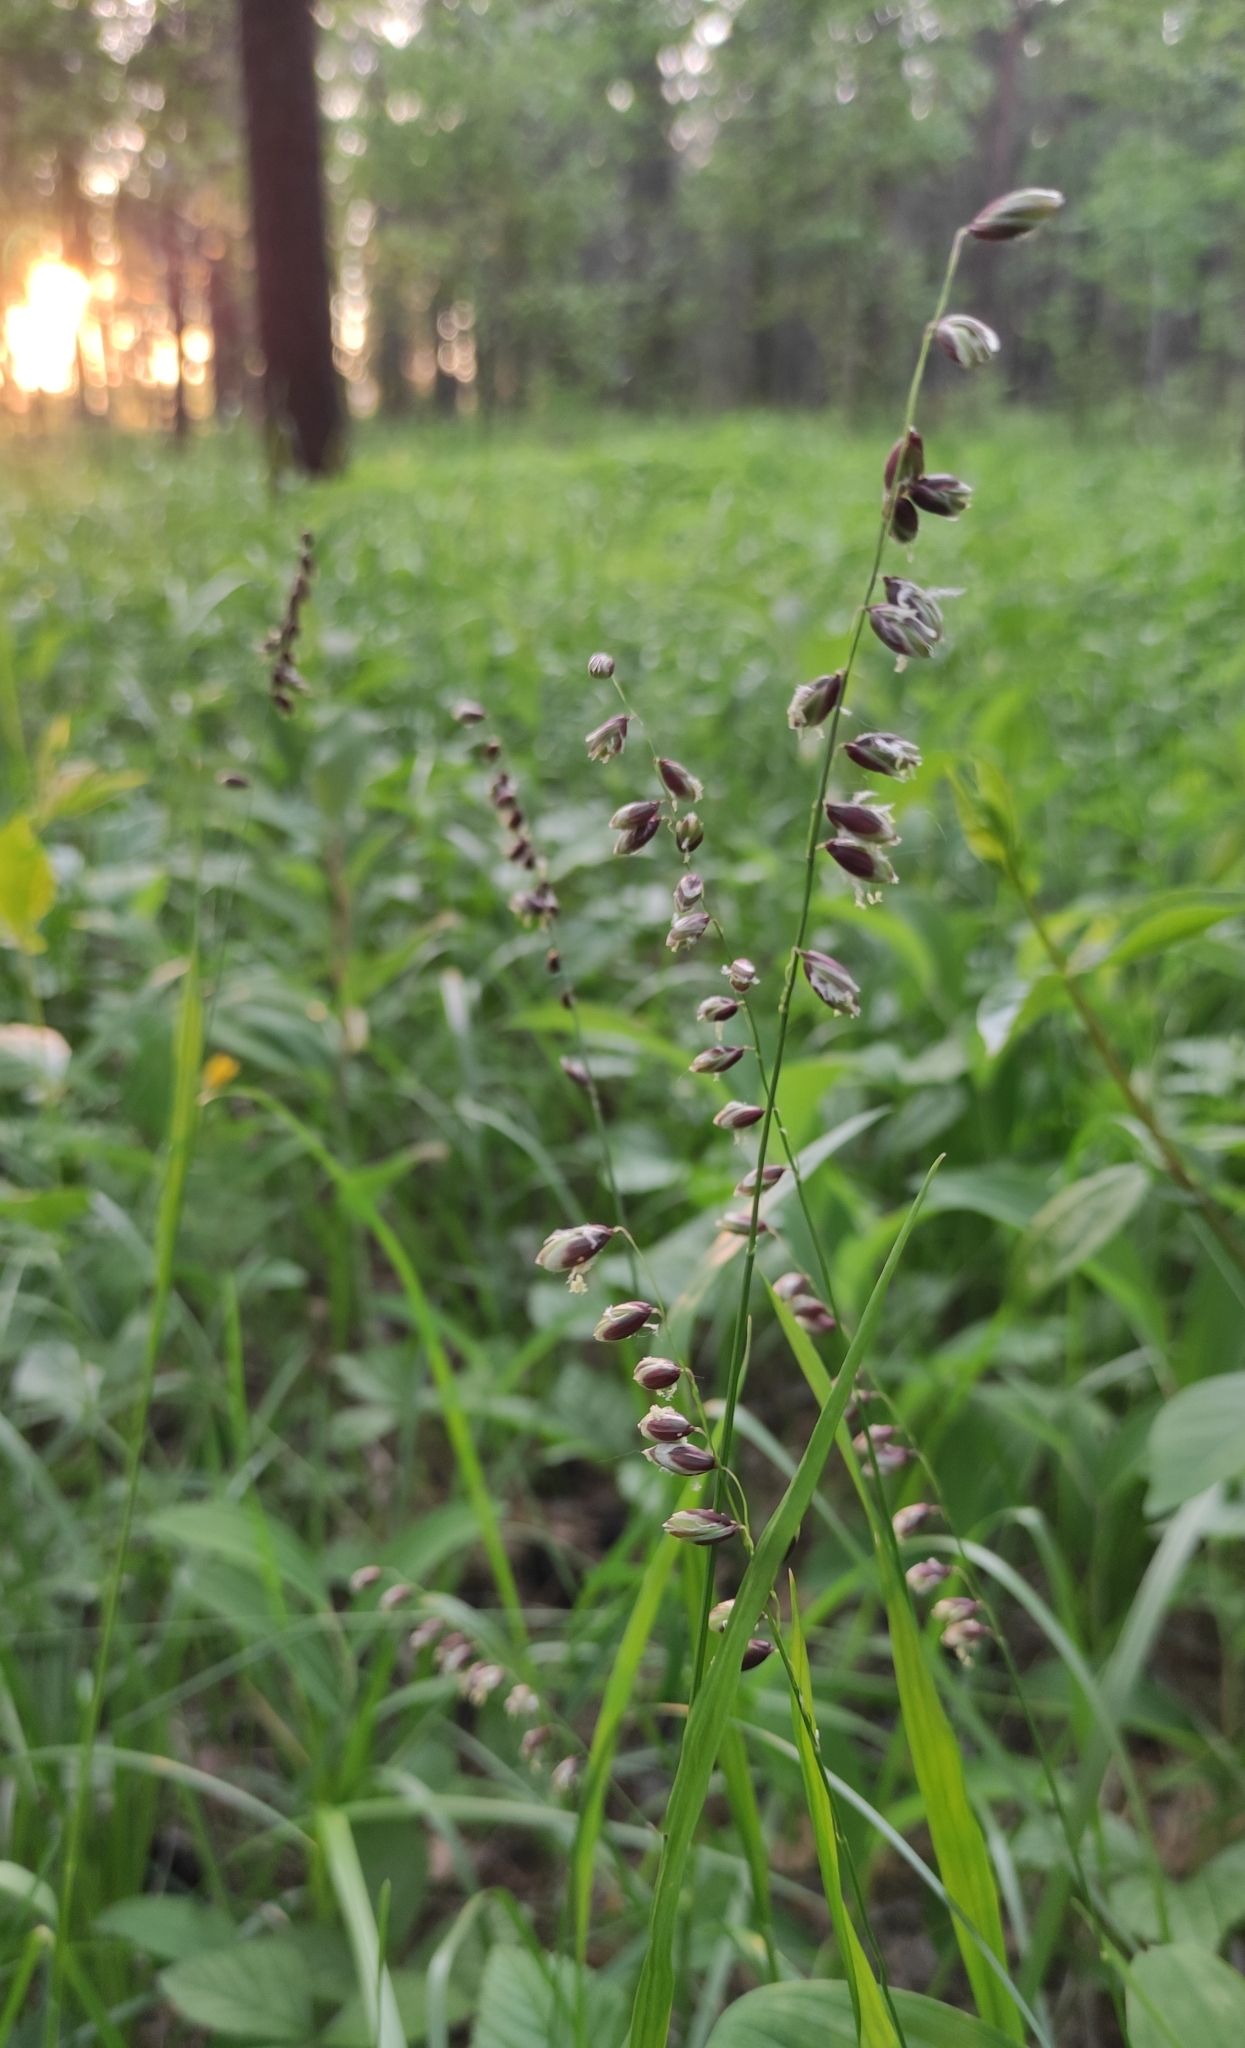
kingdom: Plantae
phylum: Tracheophyta
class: Liliopsida
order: Poales
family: Poaceae
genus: Melica
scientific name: Melica nutans
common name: Mountain melick
